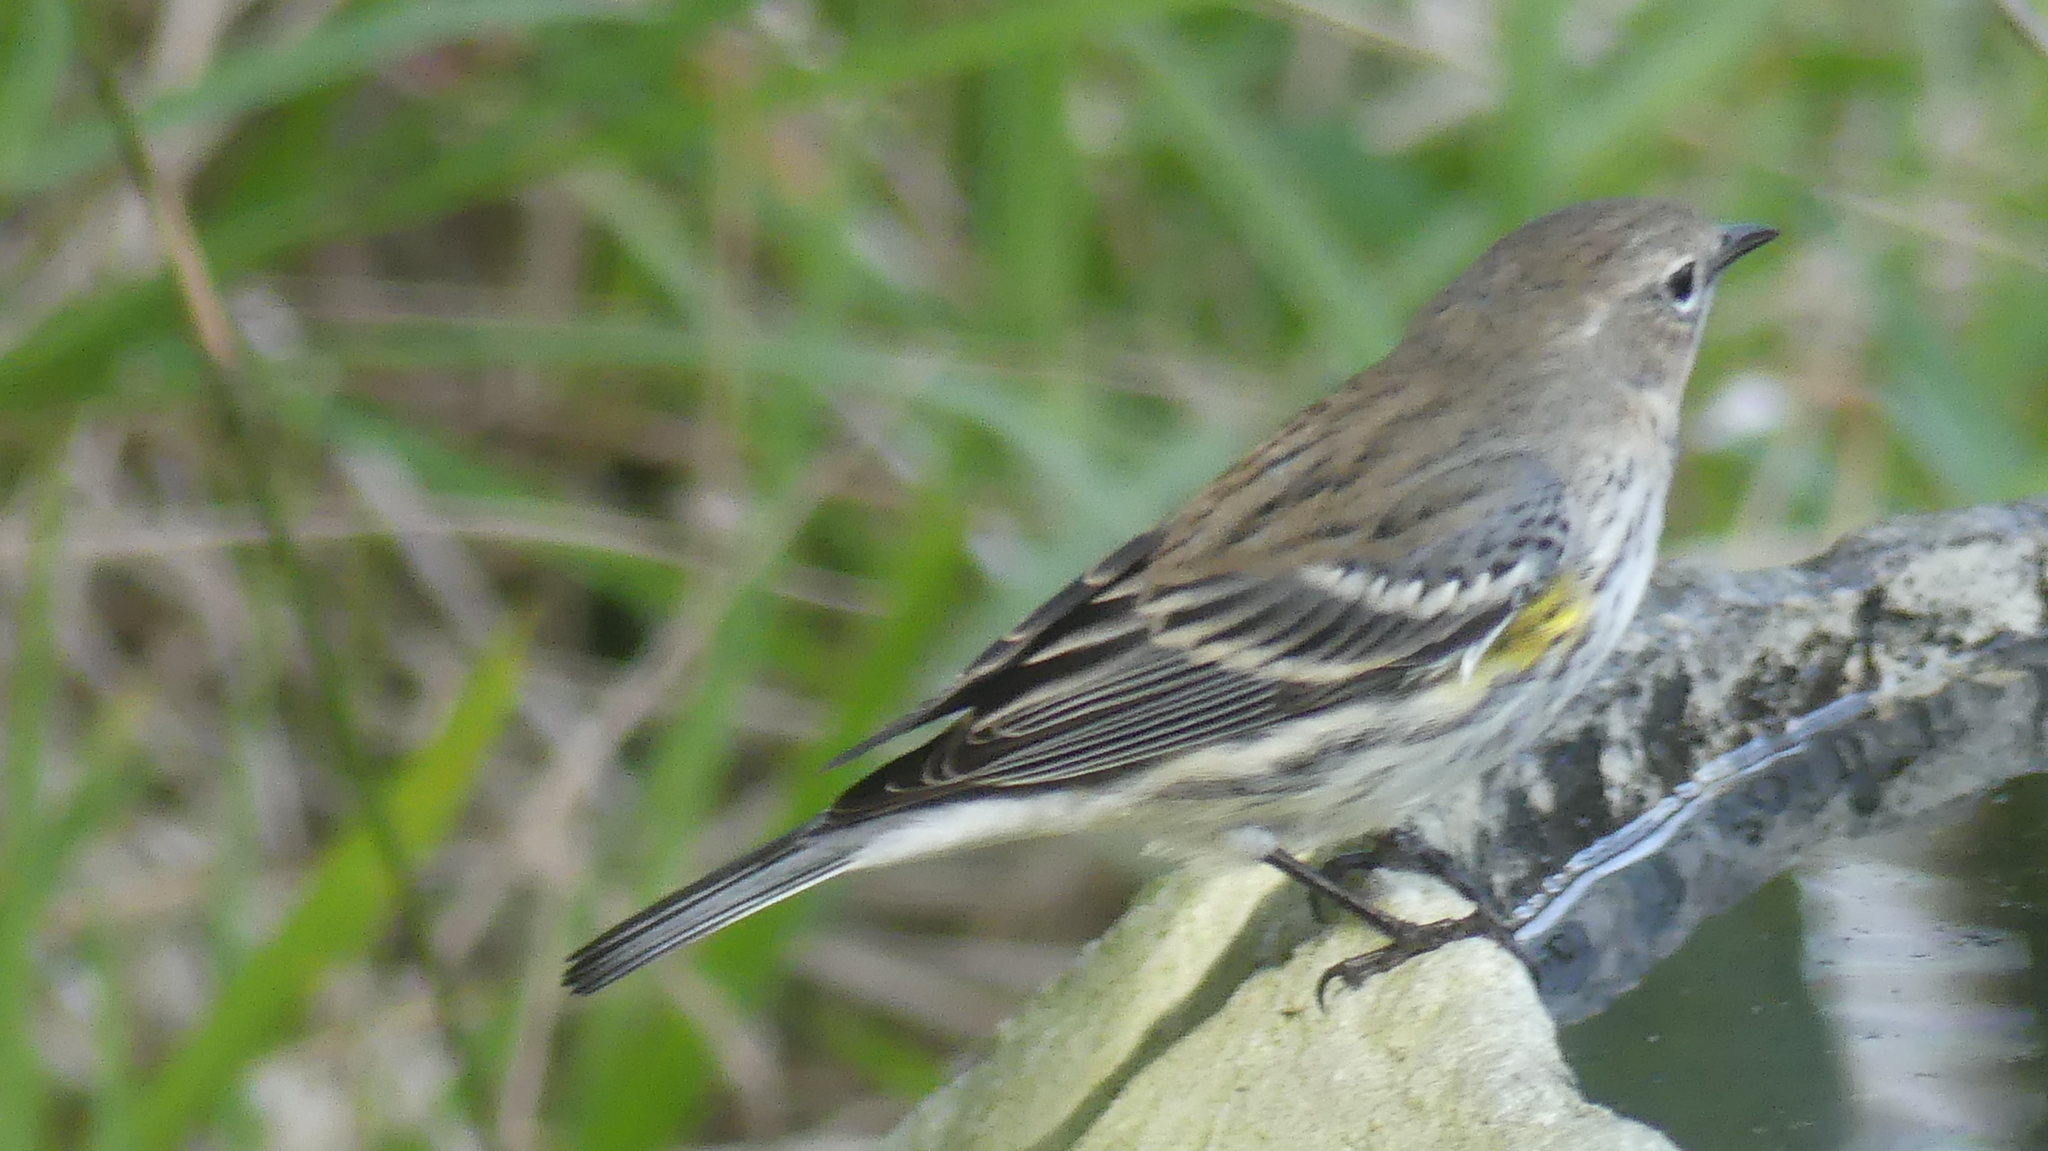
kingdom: Animalia
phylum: Chordata
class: Aves
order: Passeriformes
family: Parulidae
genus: Setophaga
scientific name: Setophaga coronata
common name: Myrtle warbler
